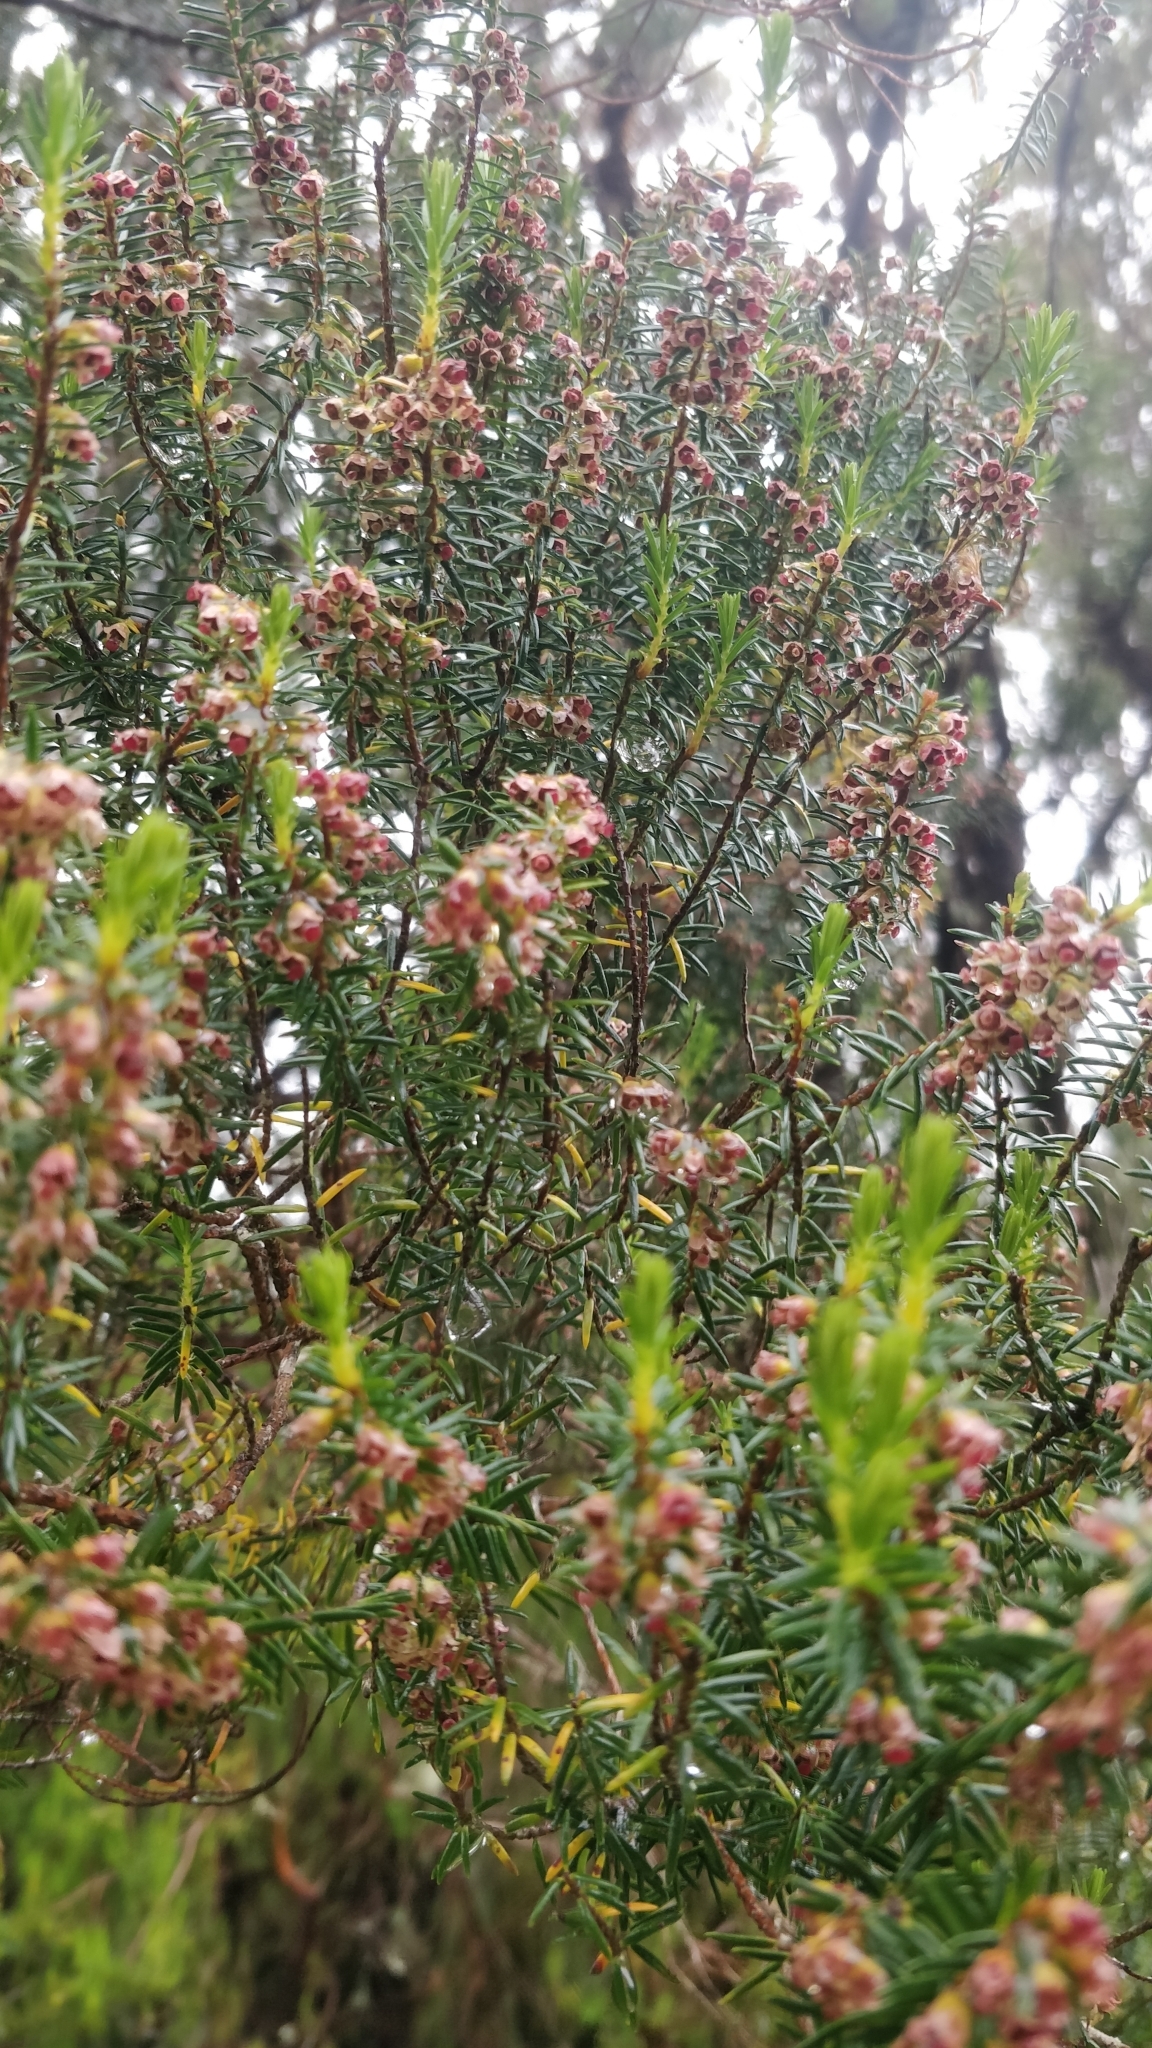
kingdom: Plantae
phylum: Tracheophyta
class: Magnoliopsida
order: Ericales
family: Ericaceae
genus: Erica
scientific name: Erica platycodon
